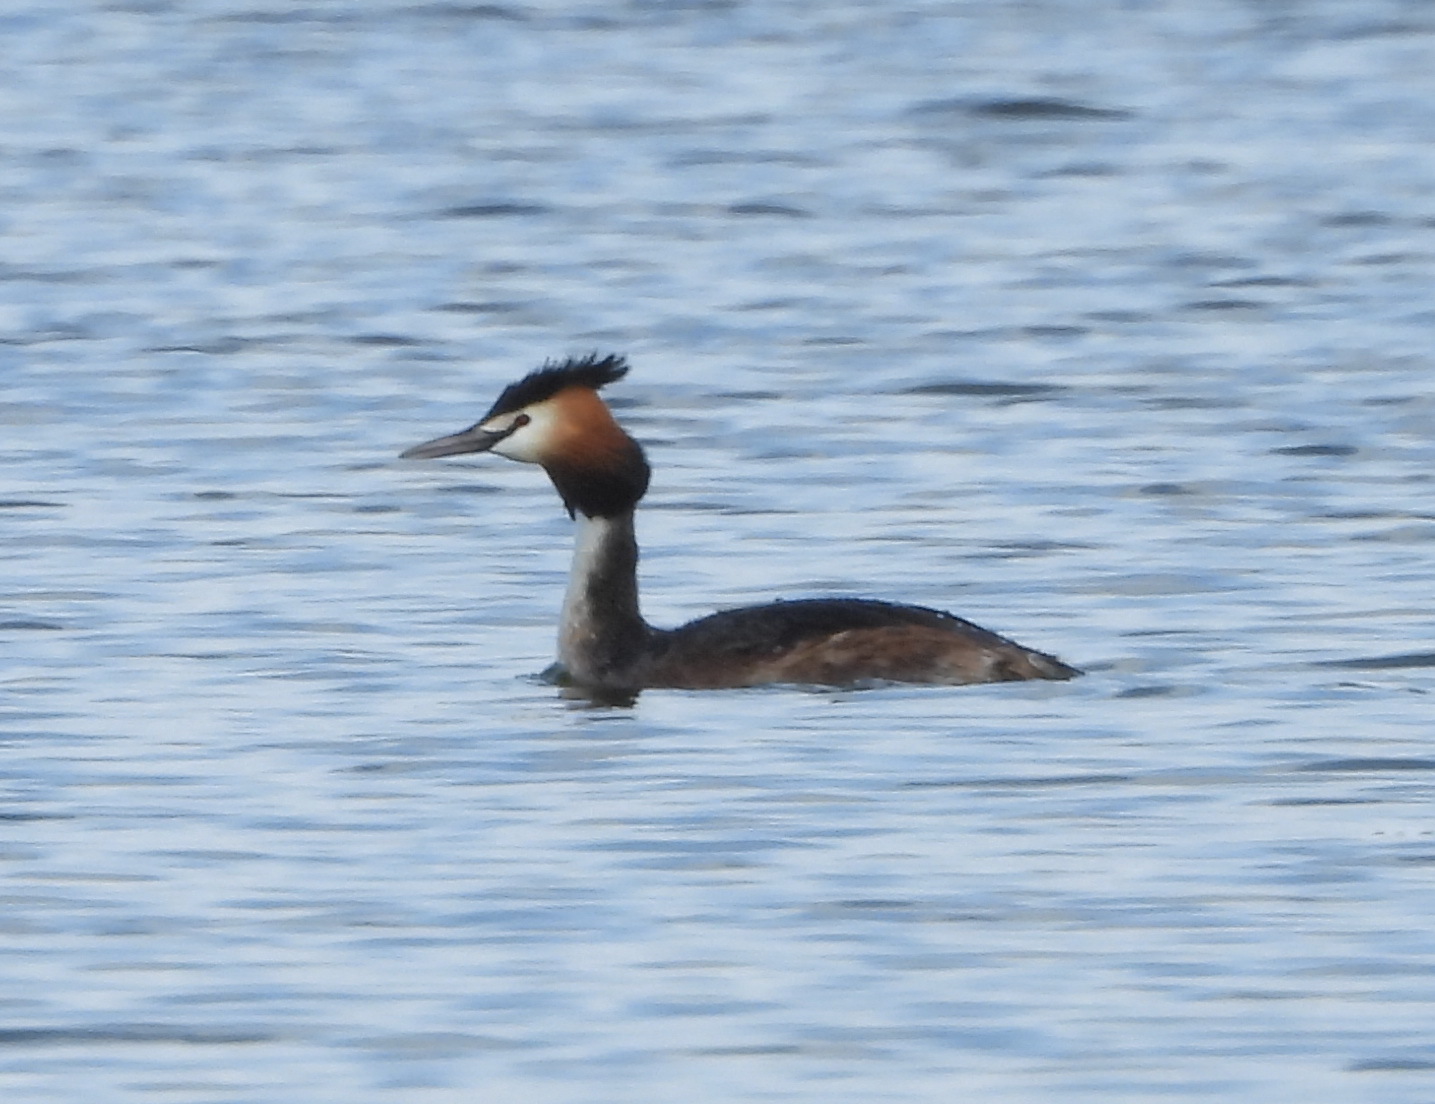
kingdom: Animalia
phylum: Chordata
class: Aves
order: Podicipediformes
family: Podicipedidae
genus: Podiceps
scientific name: Podiceps cristatus
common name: Great crested grebe
